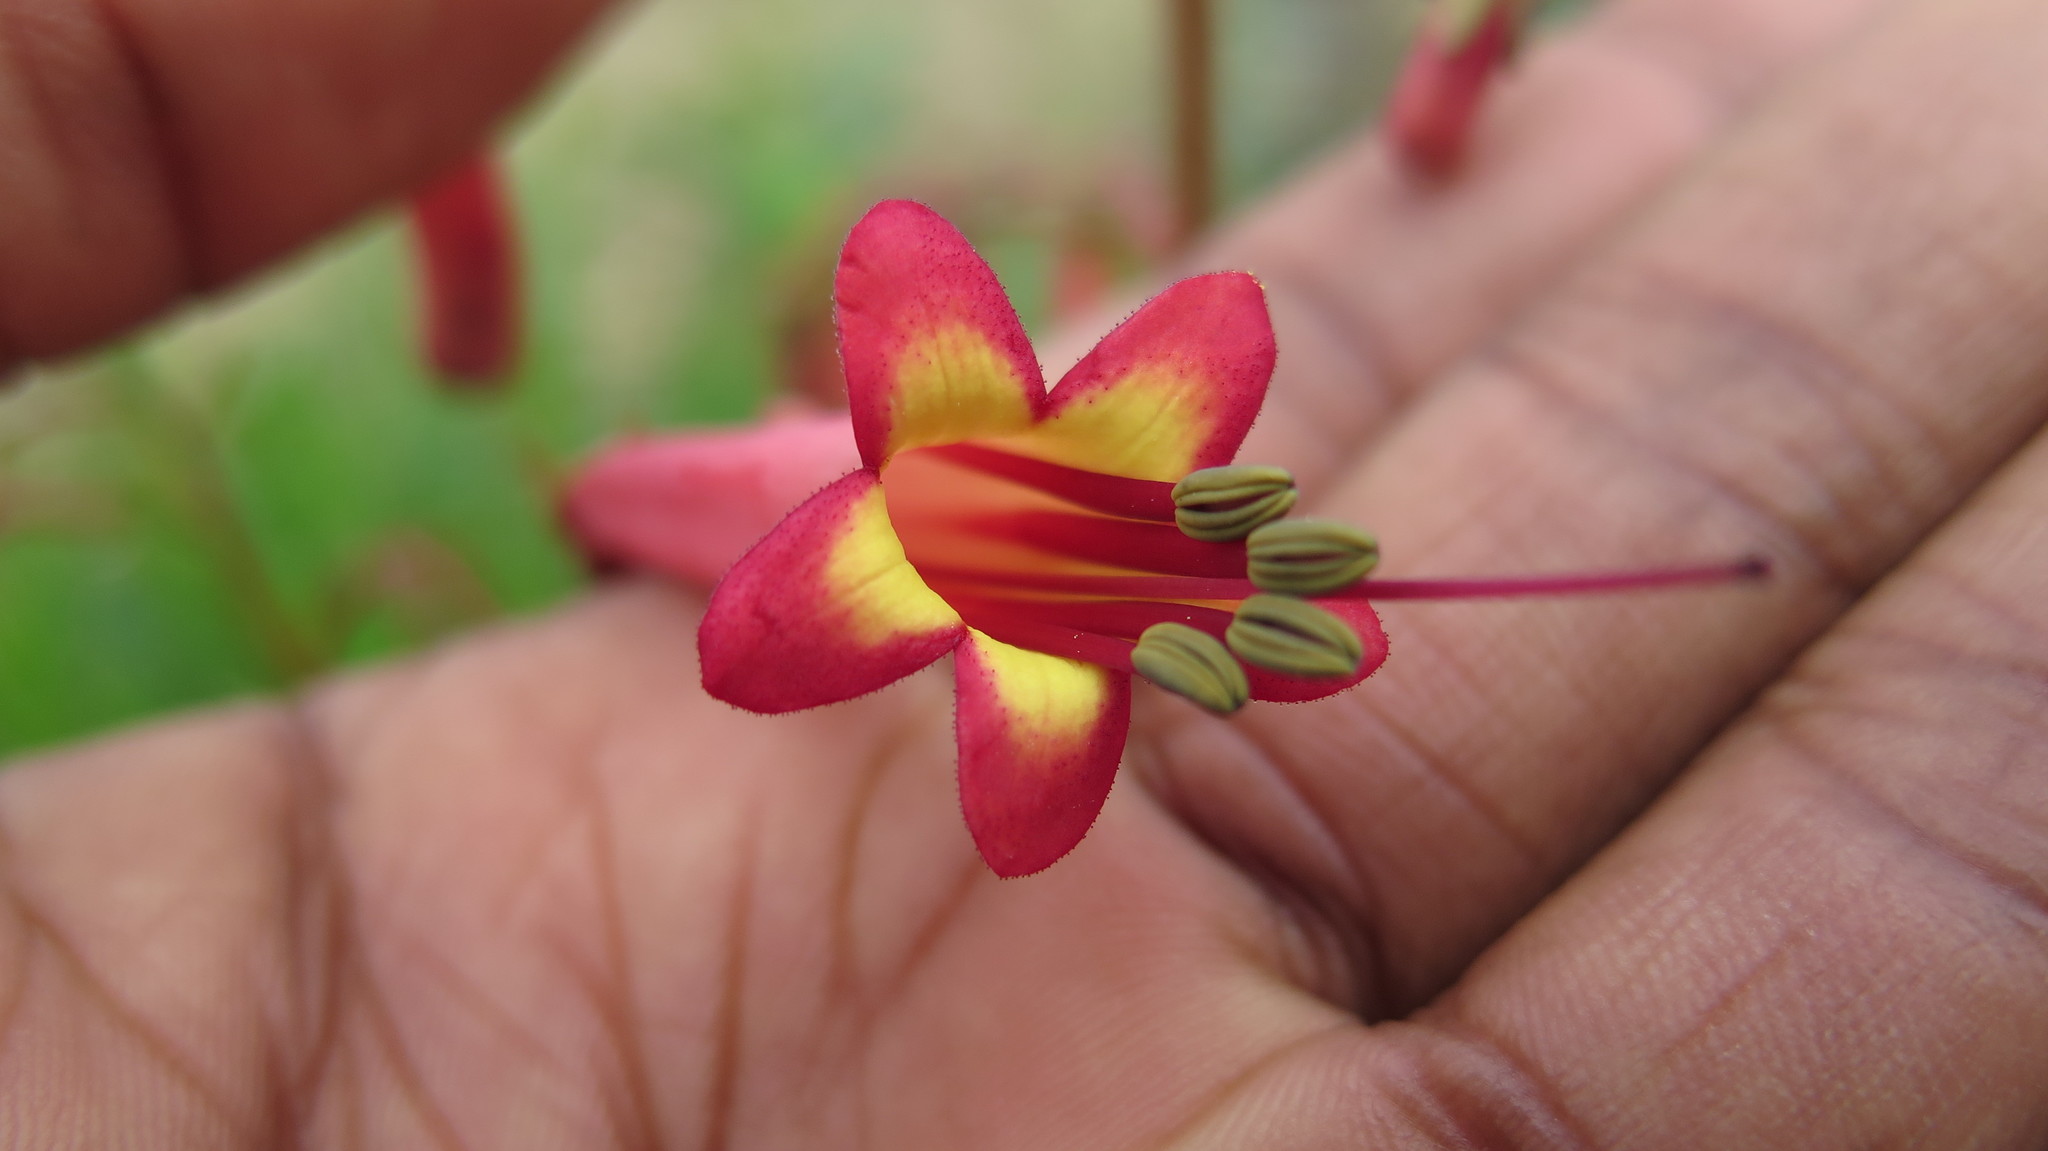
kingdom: Plantae
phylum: Tracheophyta
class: Magnoliopsida
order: Lamiales
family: Scrophulariaceae
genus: Phygelius
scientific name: Phygelius aequalis
